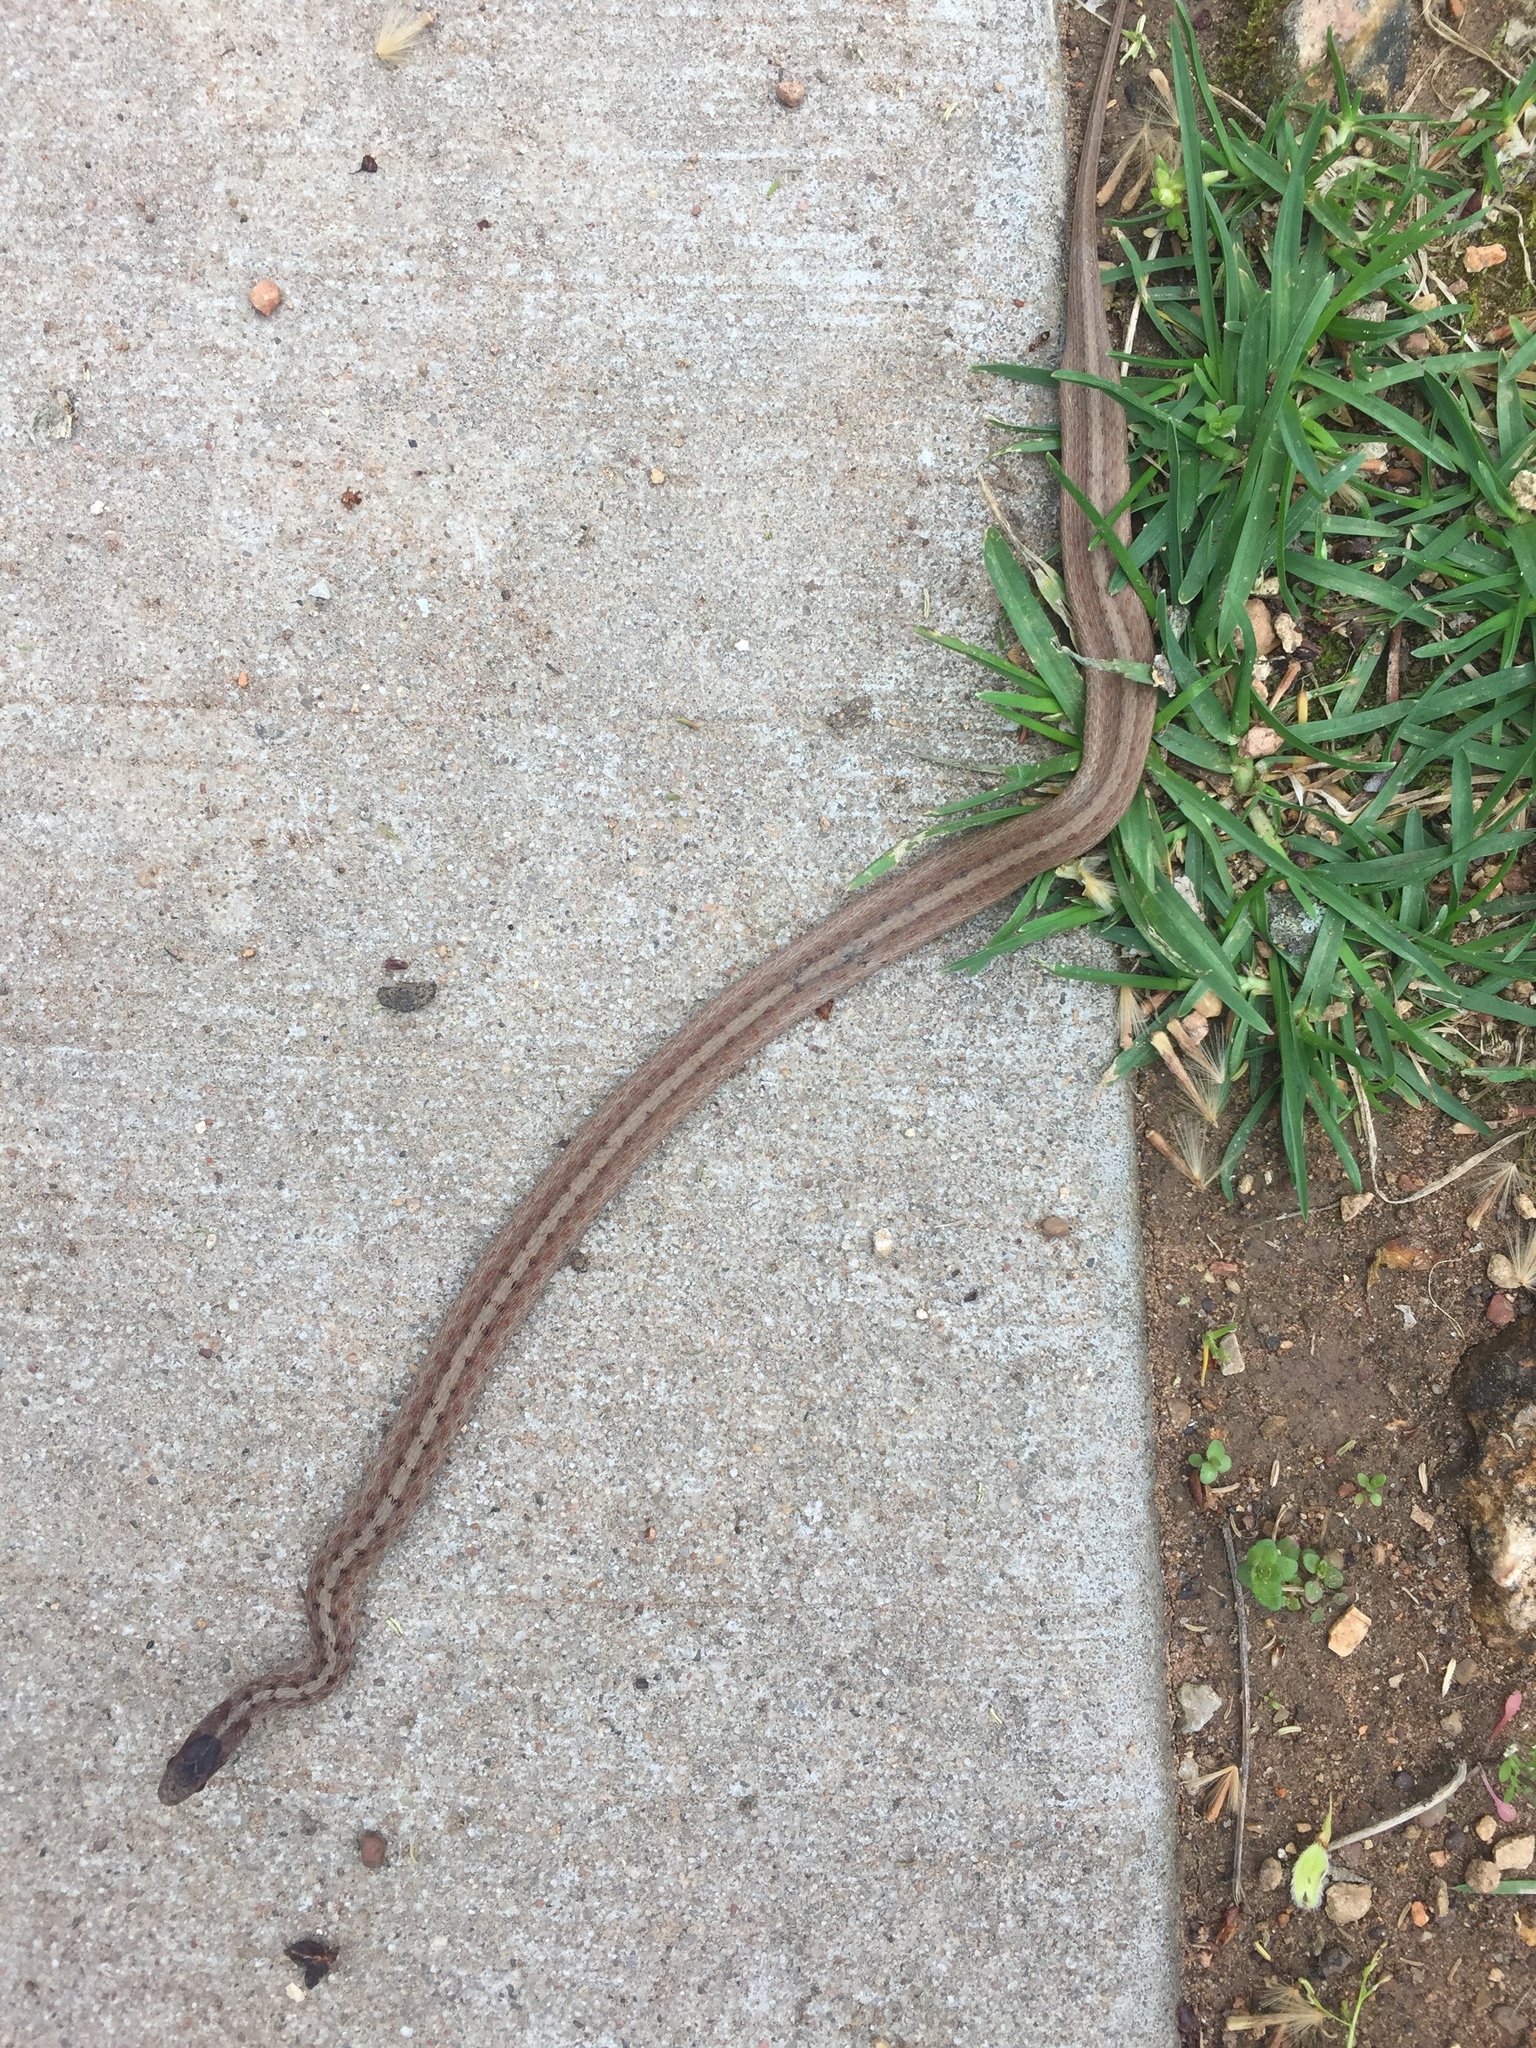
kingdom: Animalia
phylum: Chordata
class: Squamata
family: Colubridae
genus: Storeria
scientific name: Storeria dekayi
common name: (dekay’s) brown snake
